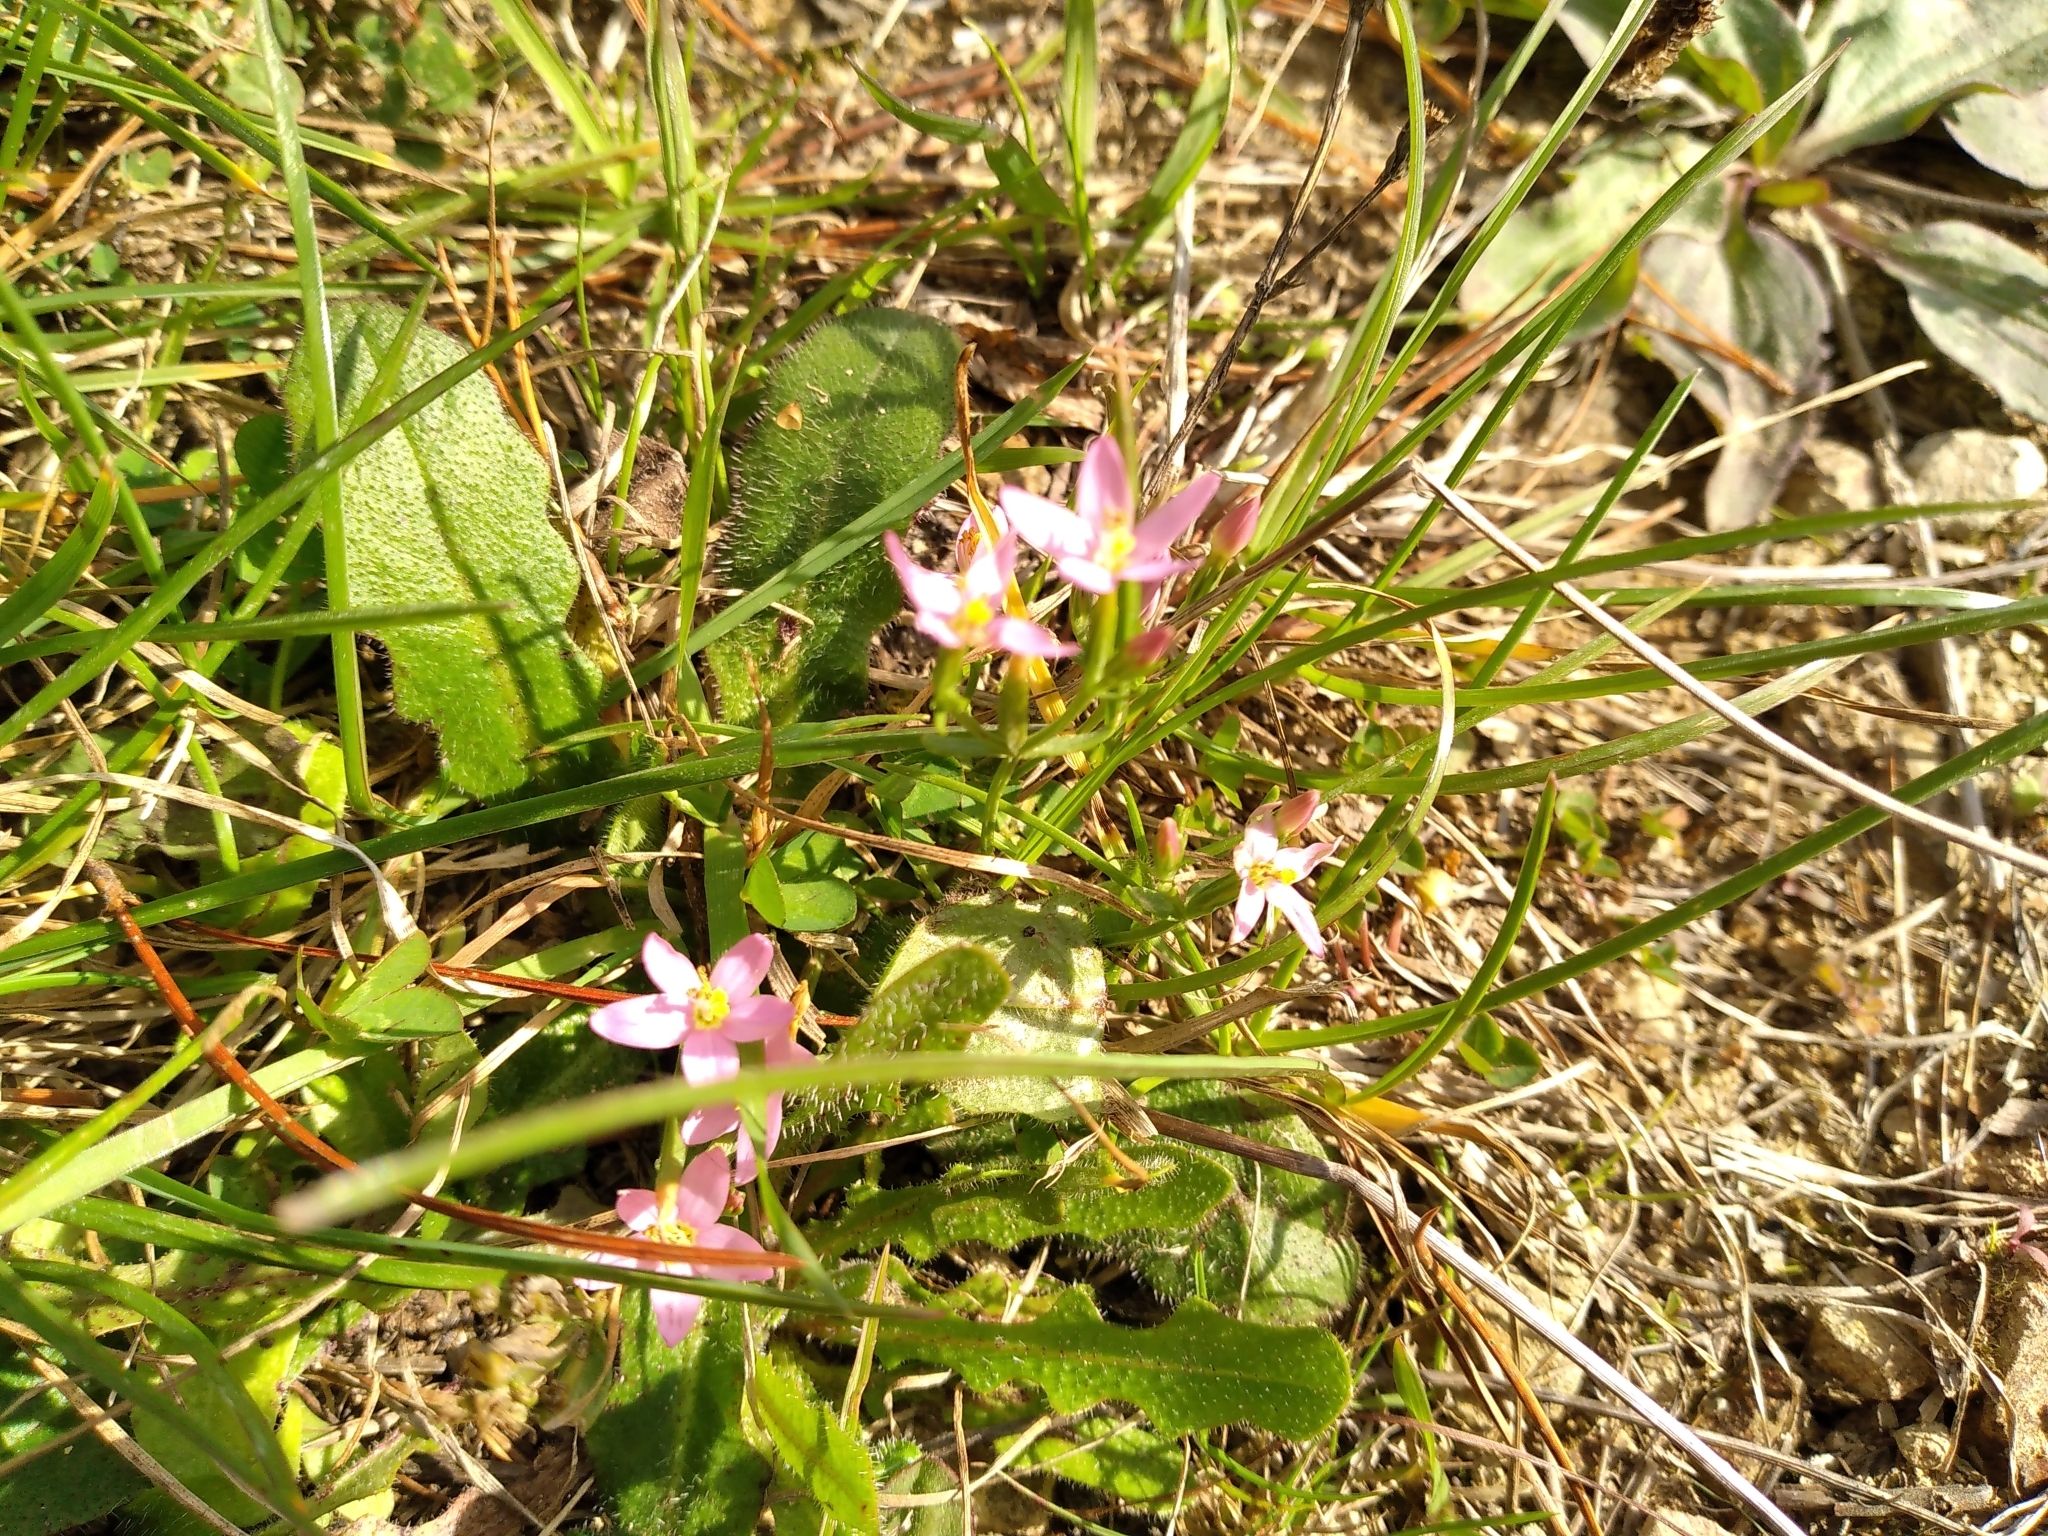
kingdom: Plantae
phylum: Tracheophyta
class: Magnoliopsida
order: Gentianales
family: Gentianaceae
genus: Centaurium
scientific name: Centaurium erythraea
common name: Common centaury
